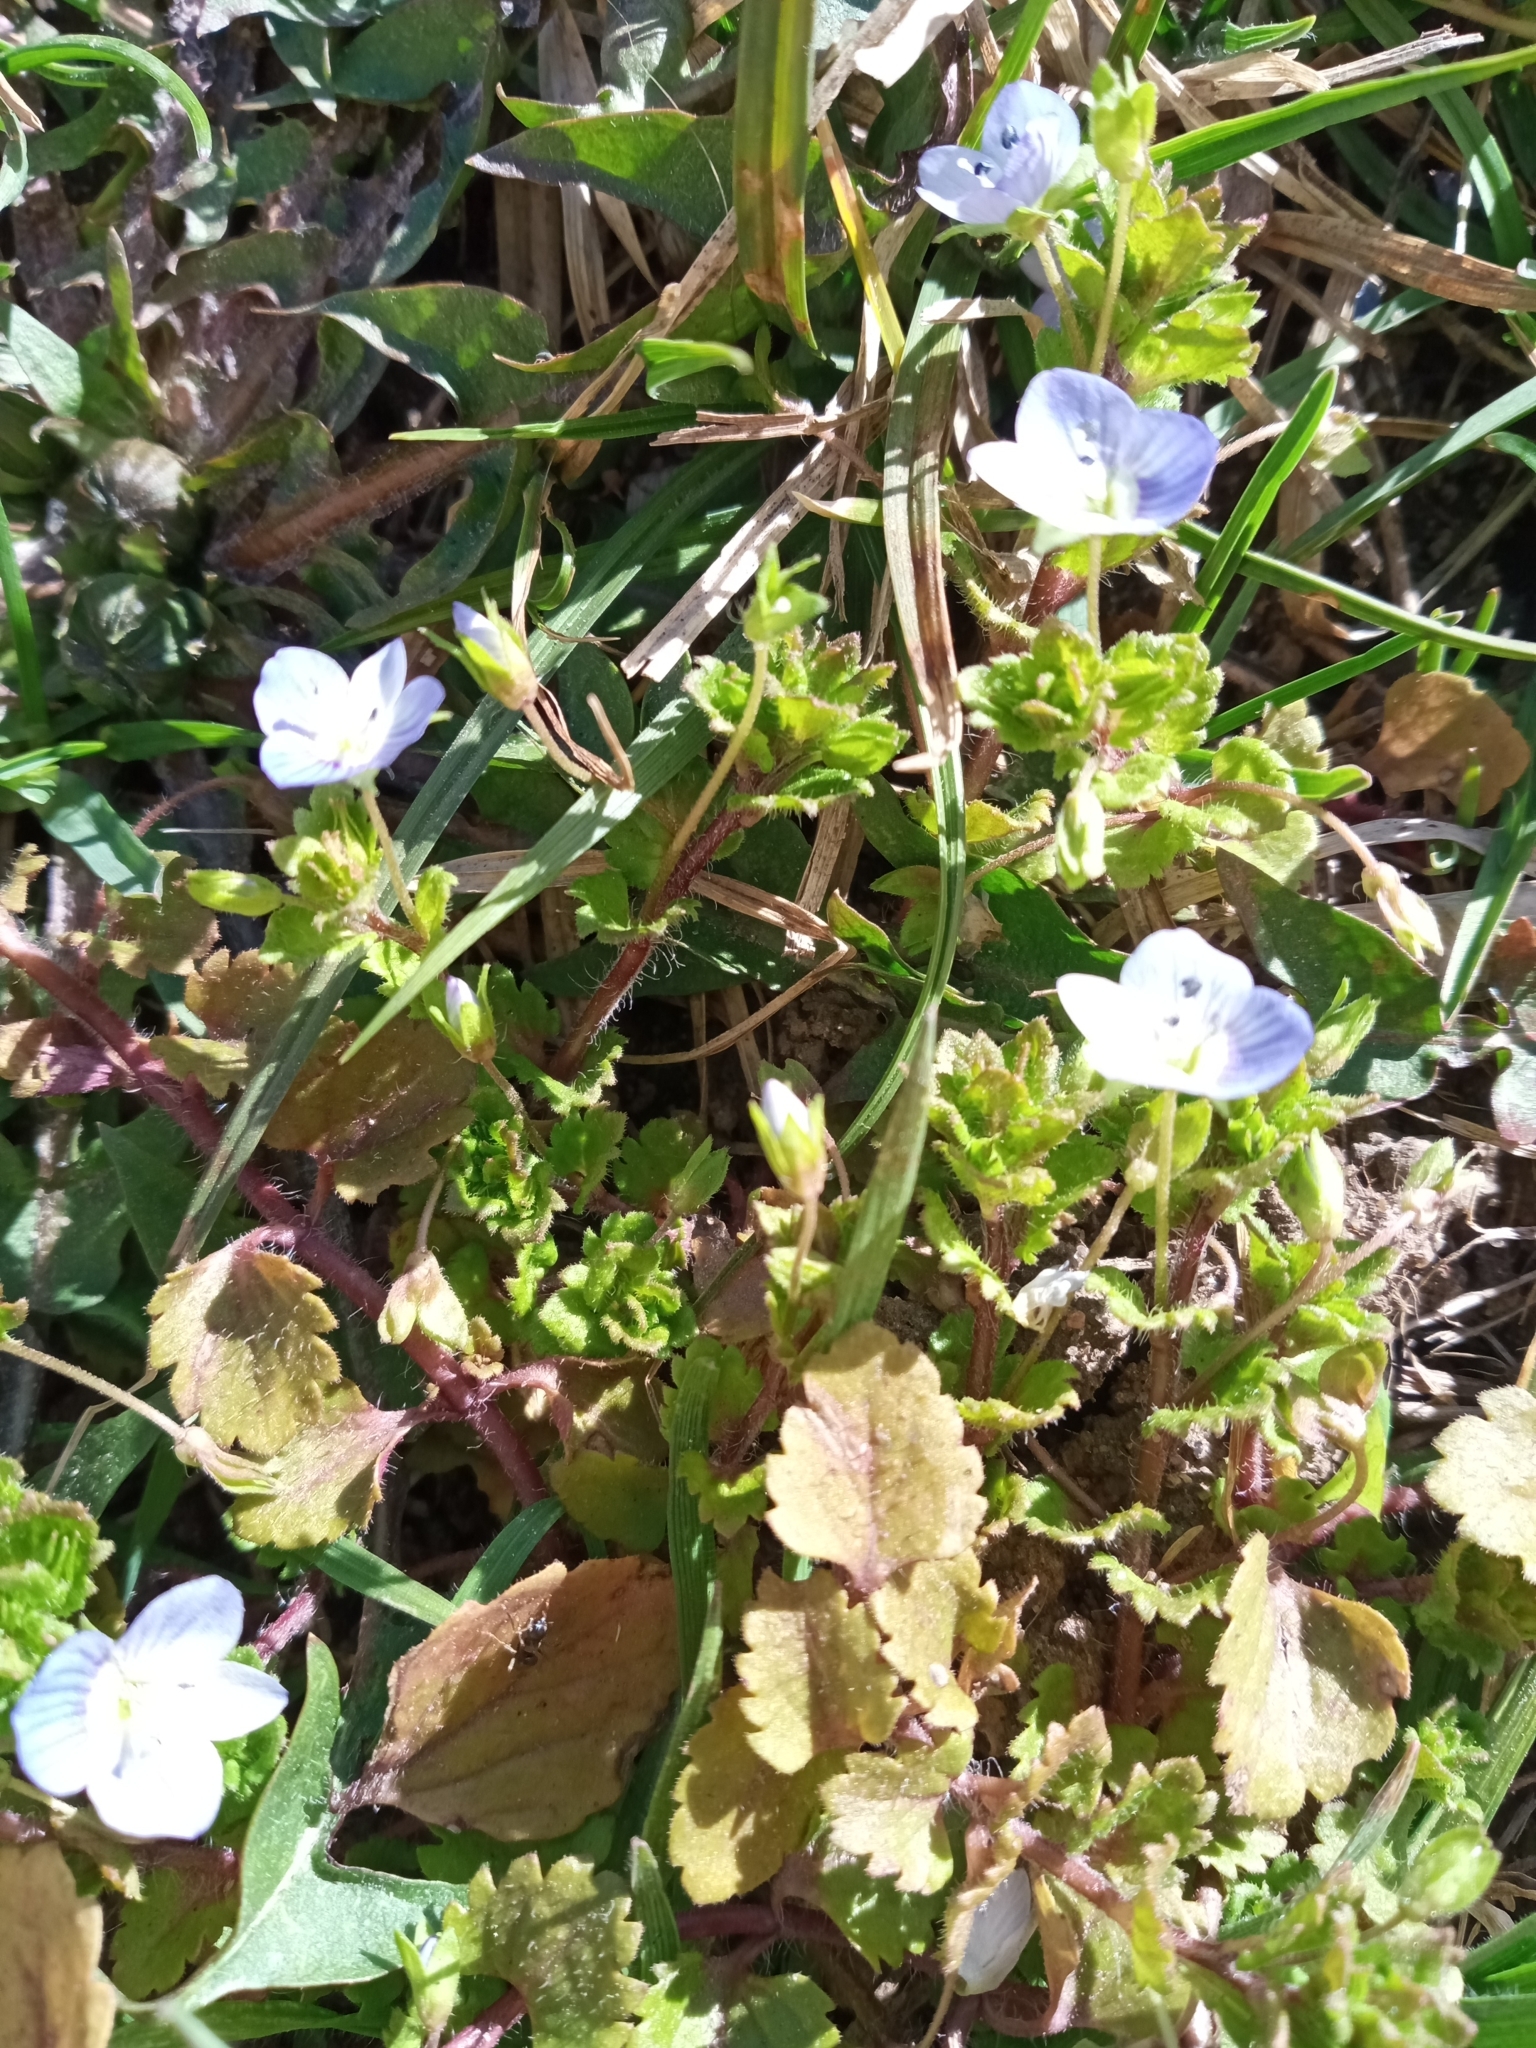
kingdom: Plantae
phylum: Tracheophyta
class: Magnoliopsida
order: Lamiales
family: Plantaginaceae
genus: Veronica
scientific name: Veronica persica
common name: Common field-speedwell
